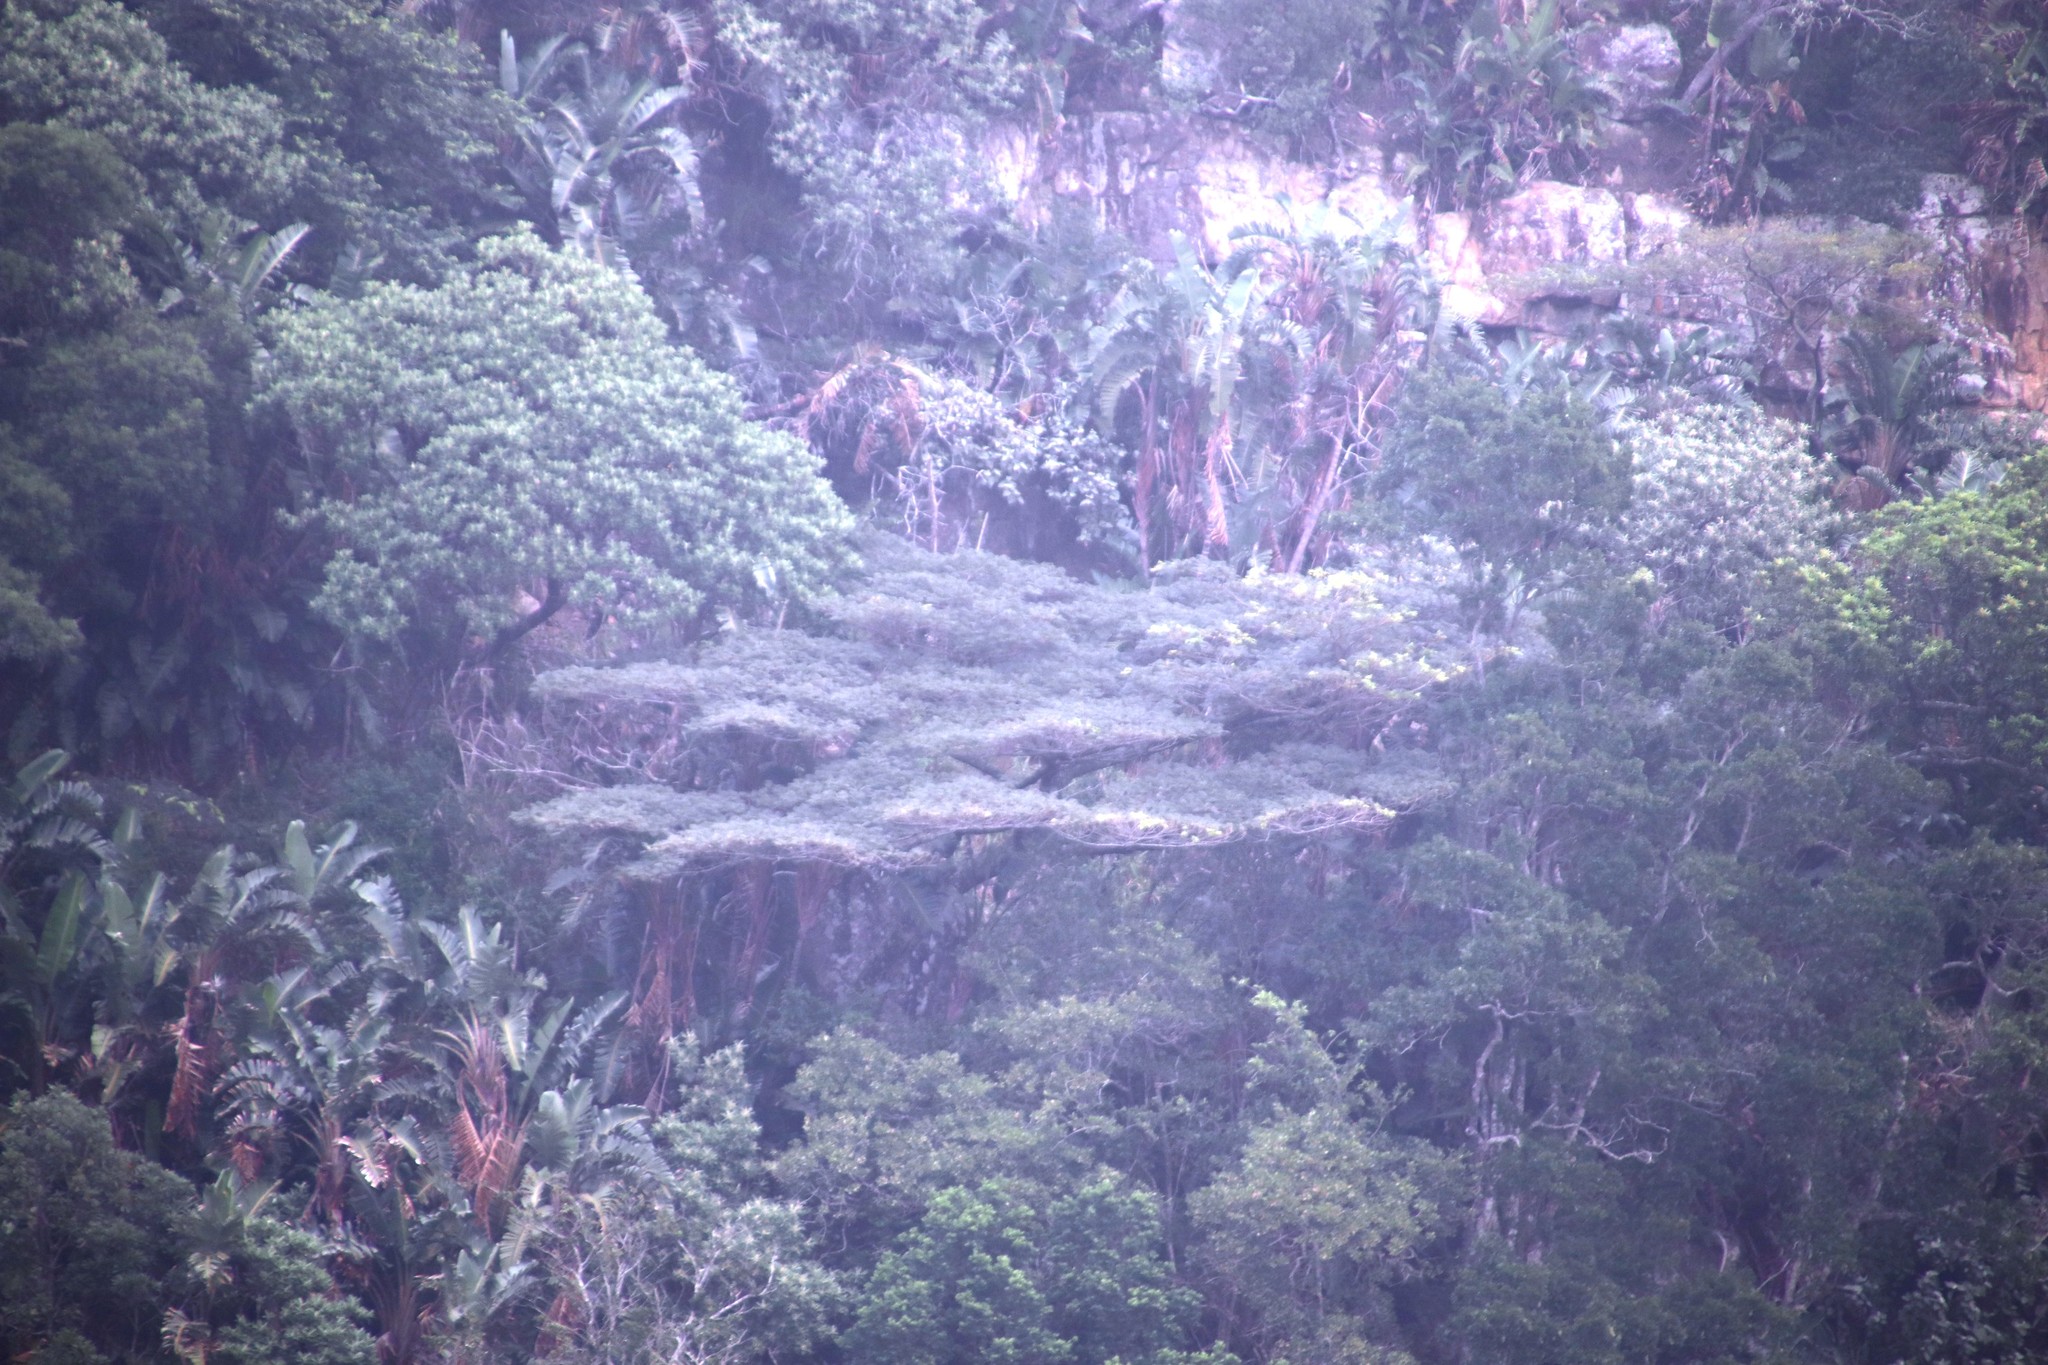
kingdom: Plantae
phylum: Tracheophyta
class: Magnoliopsida
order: Fabales
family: Fabaceae
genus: Albizia
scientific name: Albizia adianthifolia
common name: West african albizia
